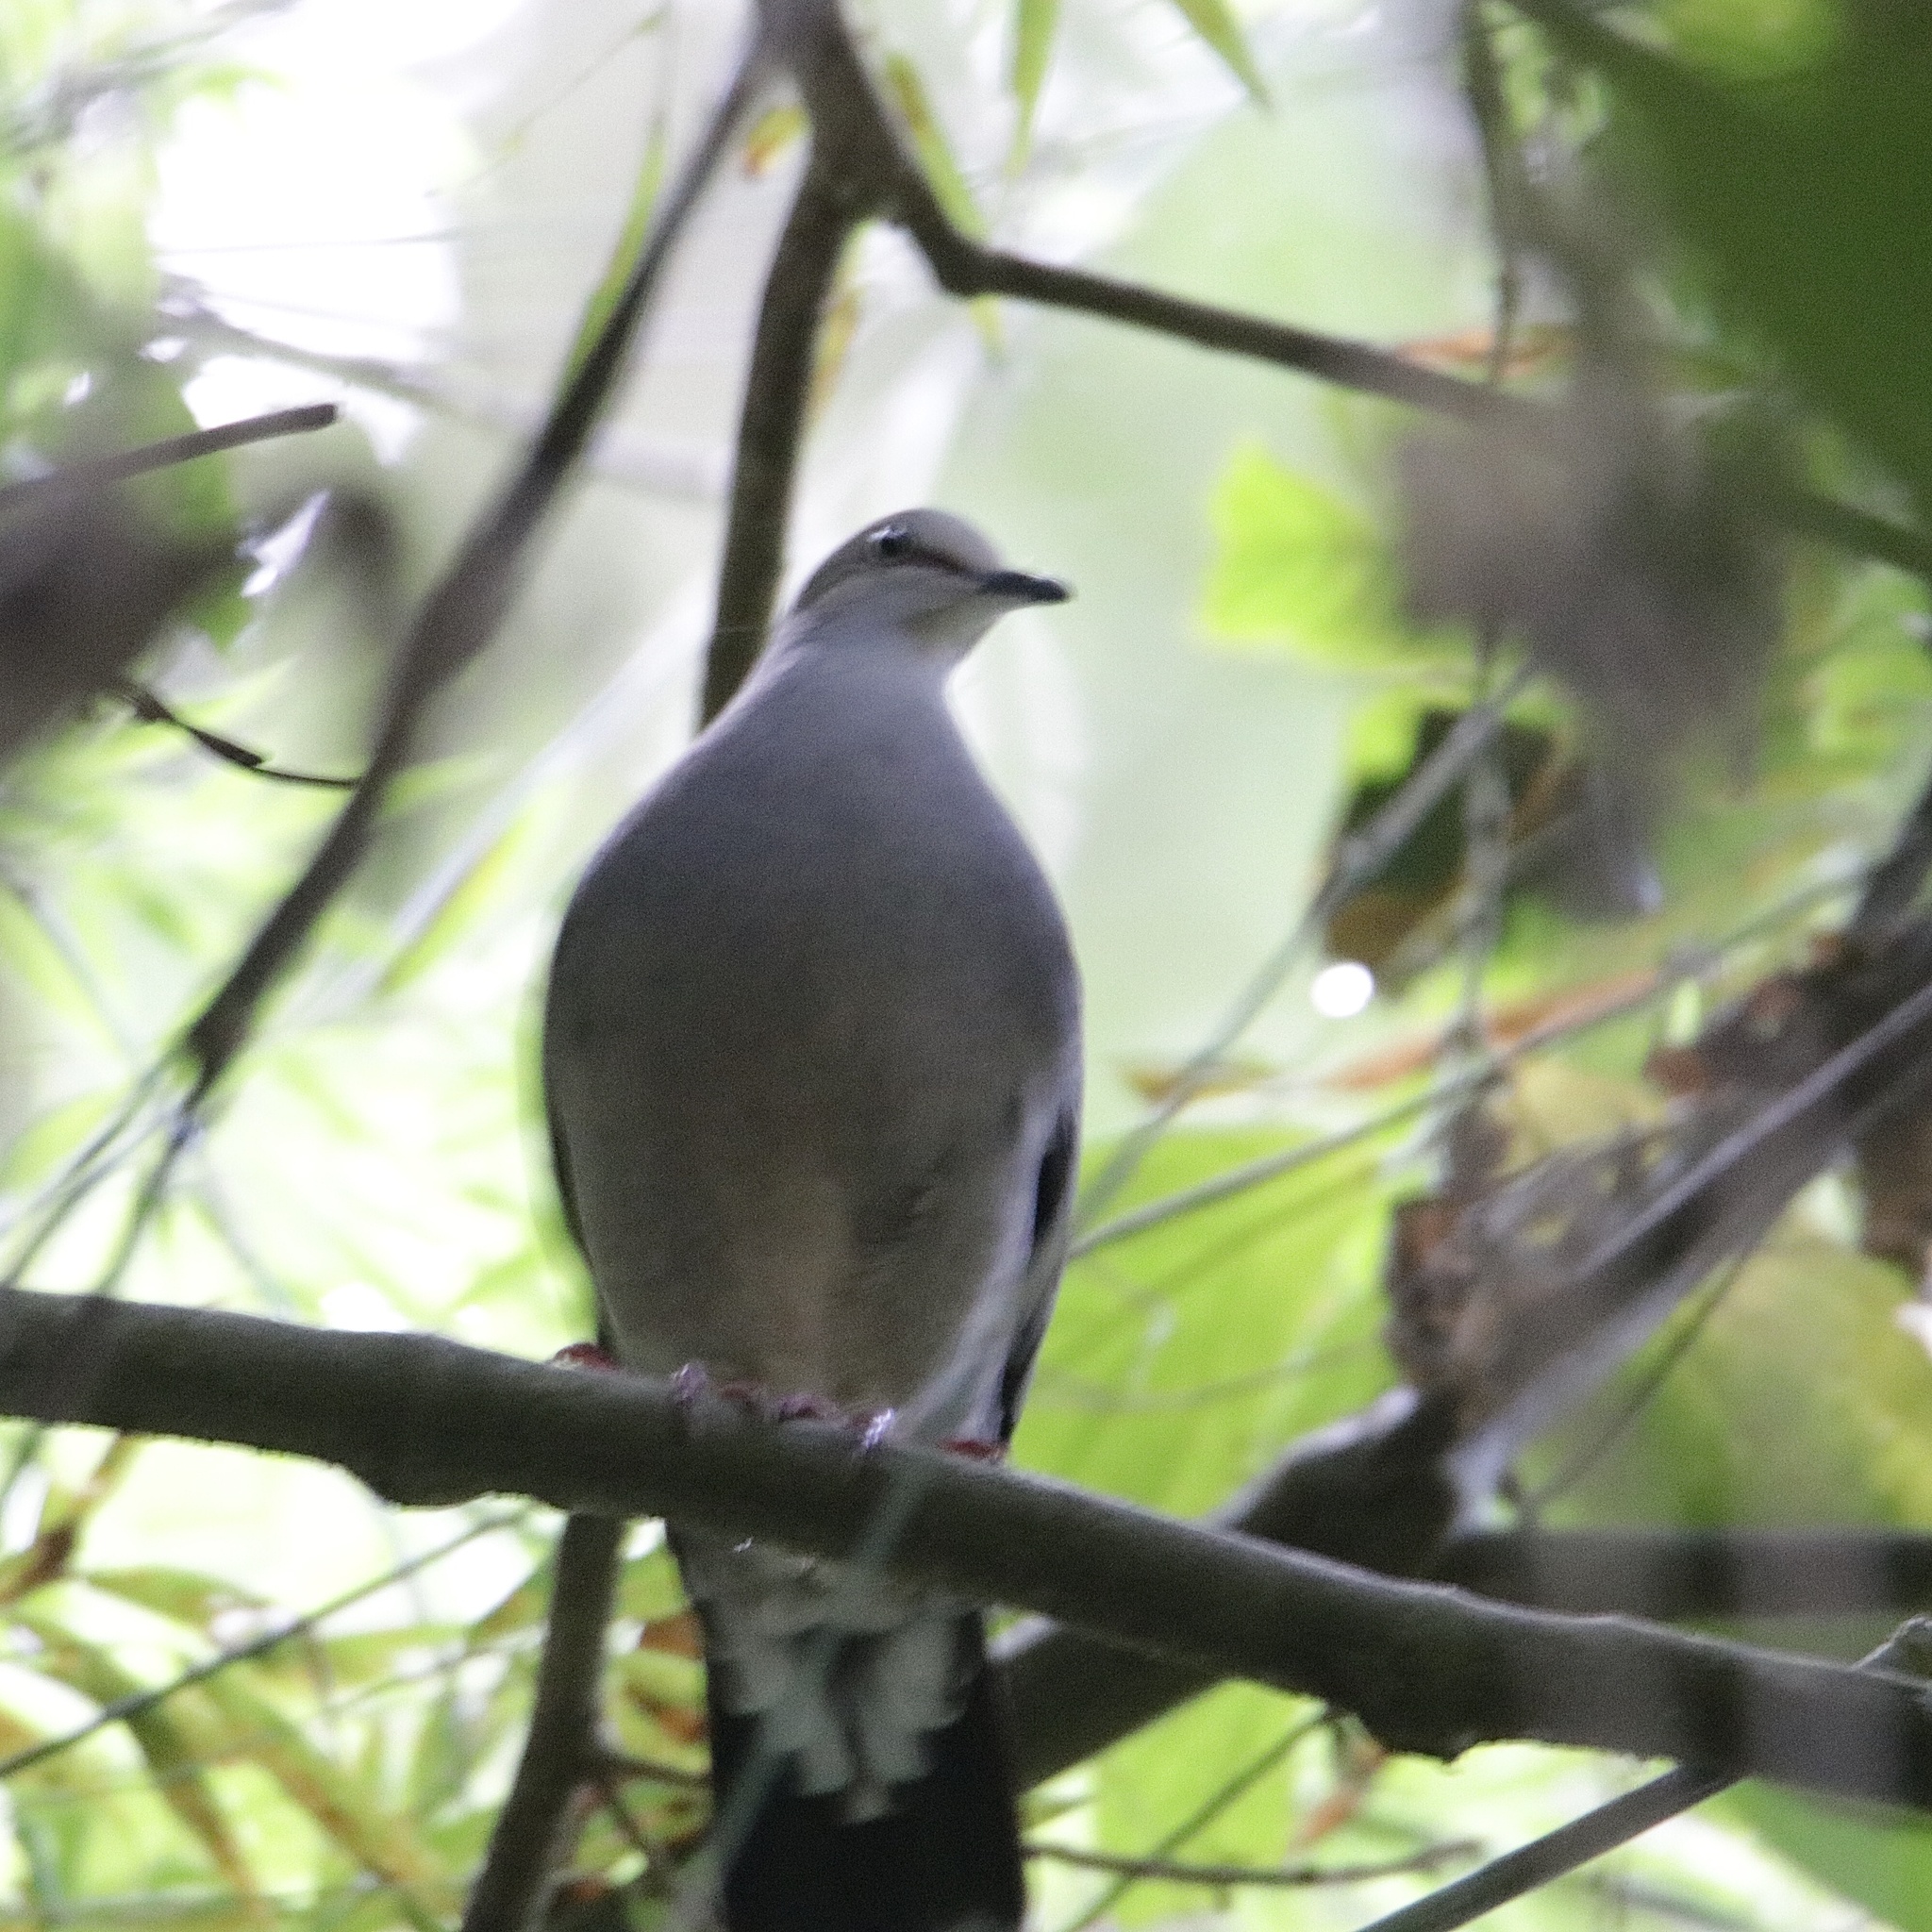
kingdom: Animalia
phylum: Chordata
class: Aves
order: Columbiformes
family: Columbidae
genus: Leptotila
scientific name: Leptotila cassinii
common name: Grey-chested dove
